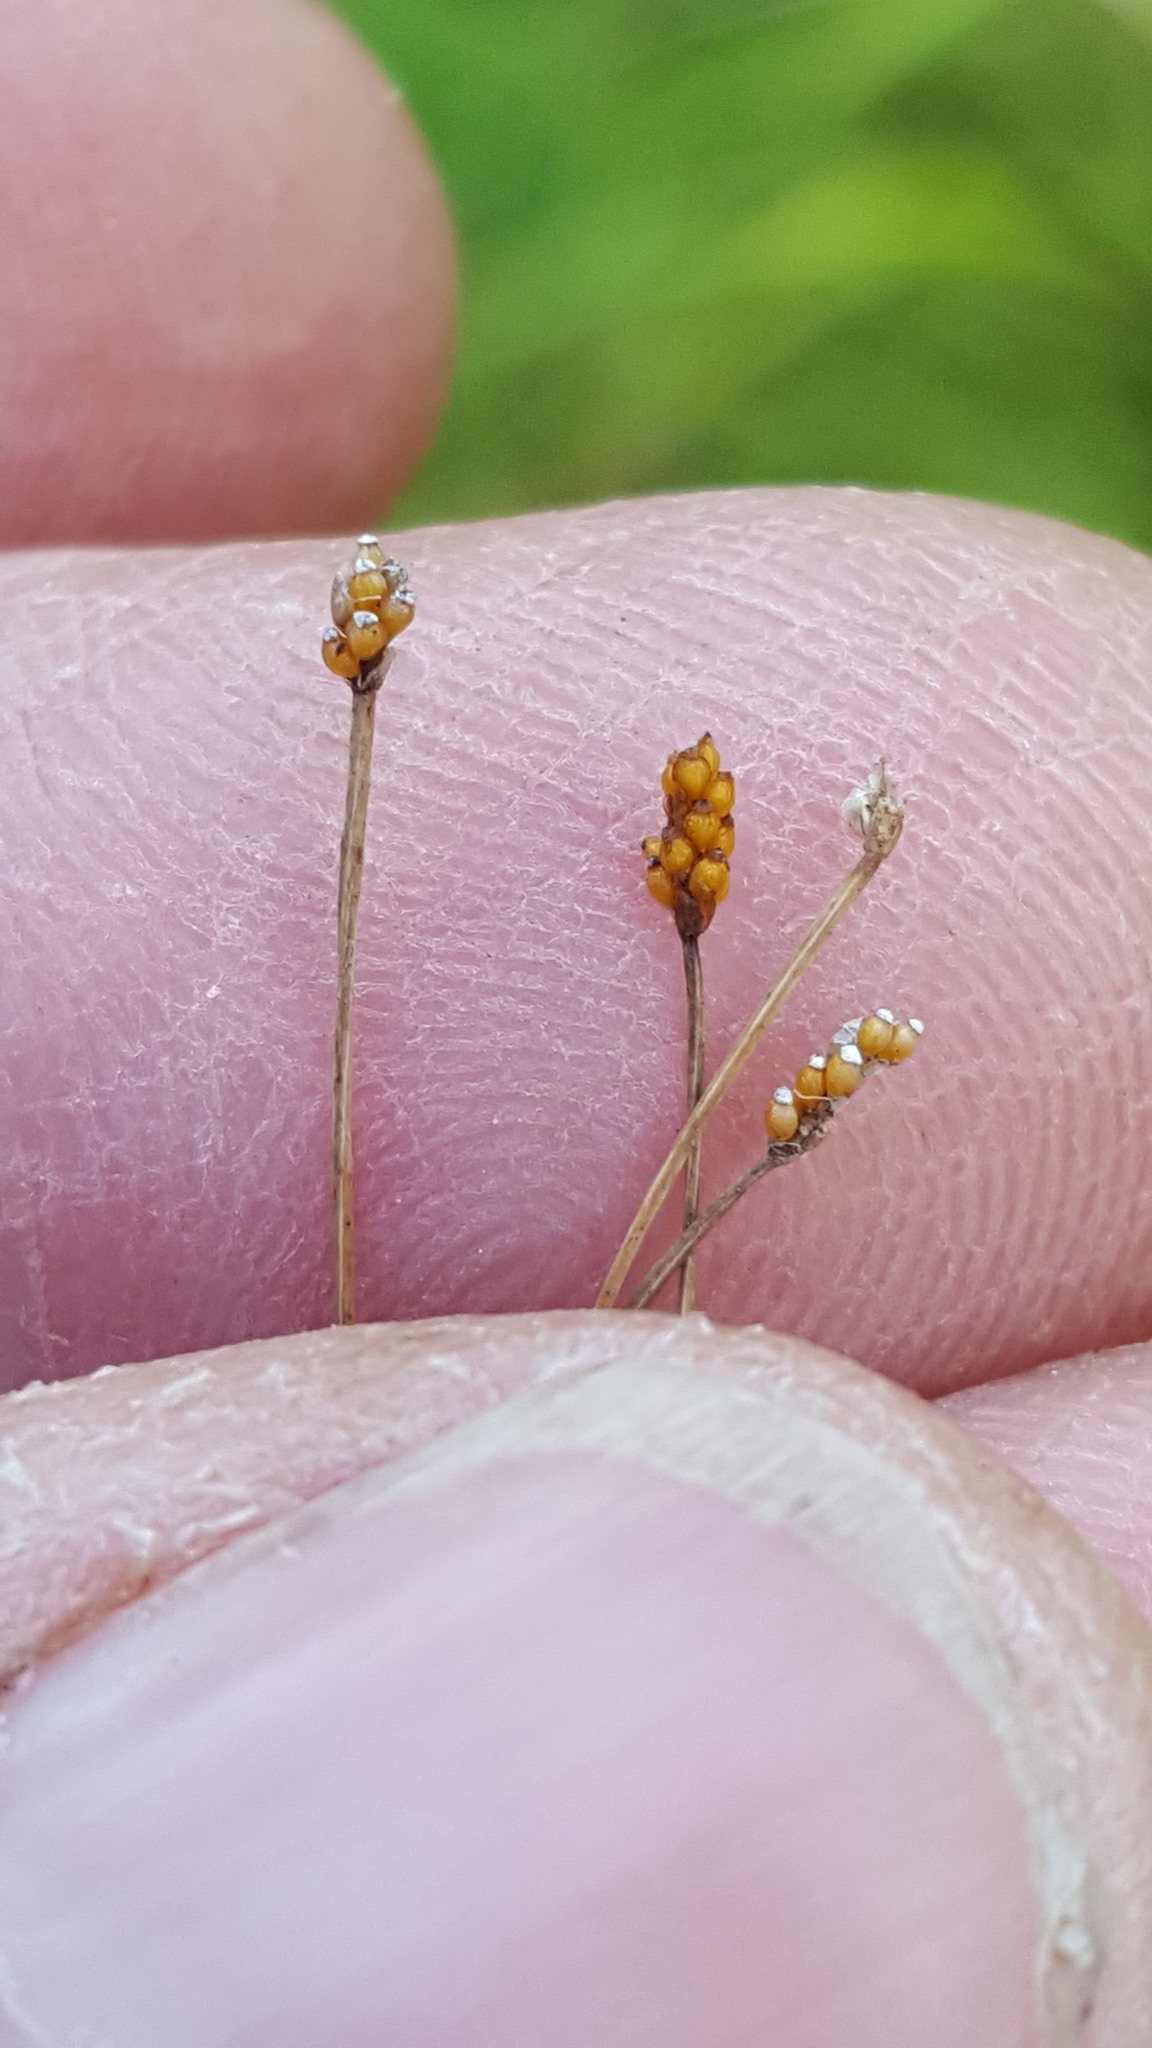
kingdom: Plantae
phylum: Tracheophyta
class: Liliopsida
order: Poales
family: Cyperaceae
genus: Eleocharis
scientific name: Eleocharis nitida
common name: Neat spikerush
